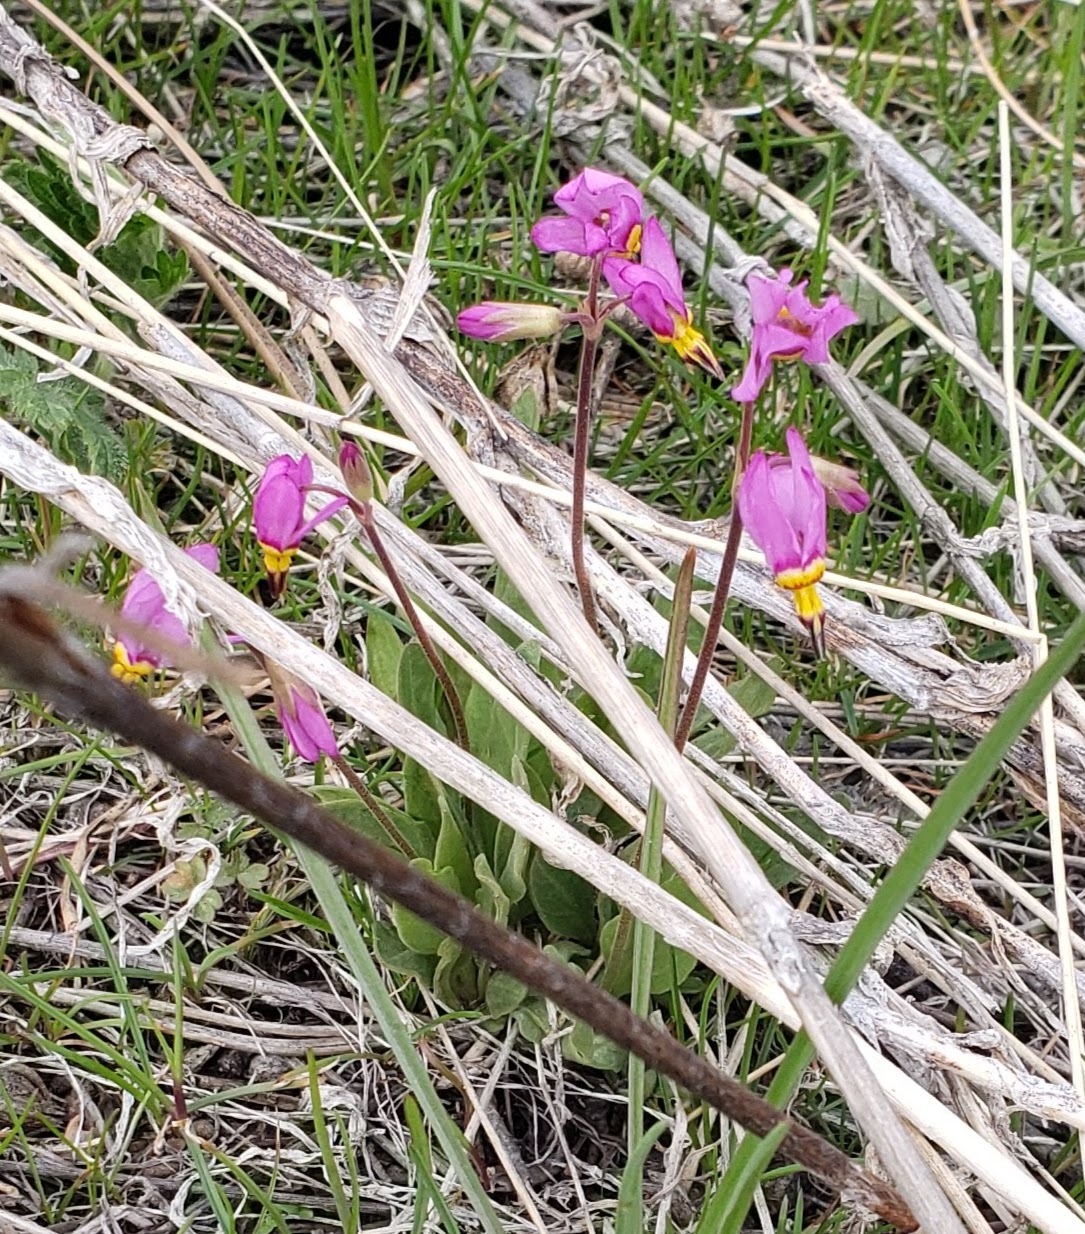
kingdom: Plantae
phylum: Tracheophyta
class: Magnoliopsida
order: Ericales
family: Primulaceae
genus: Dodecatheon
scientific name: Dodecatheon pulchellum
